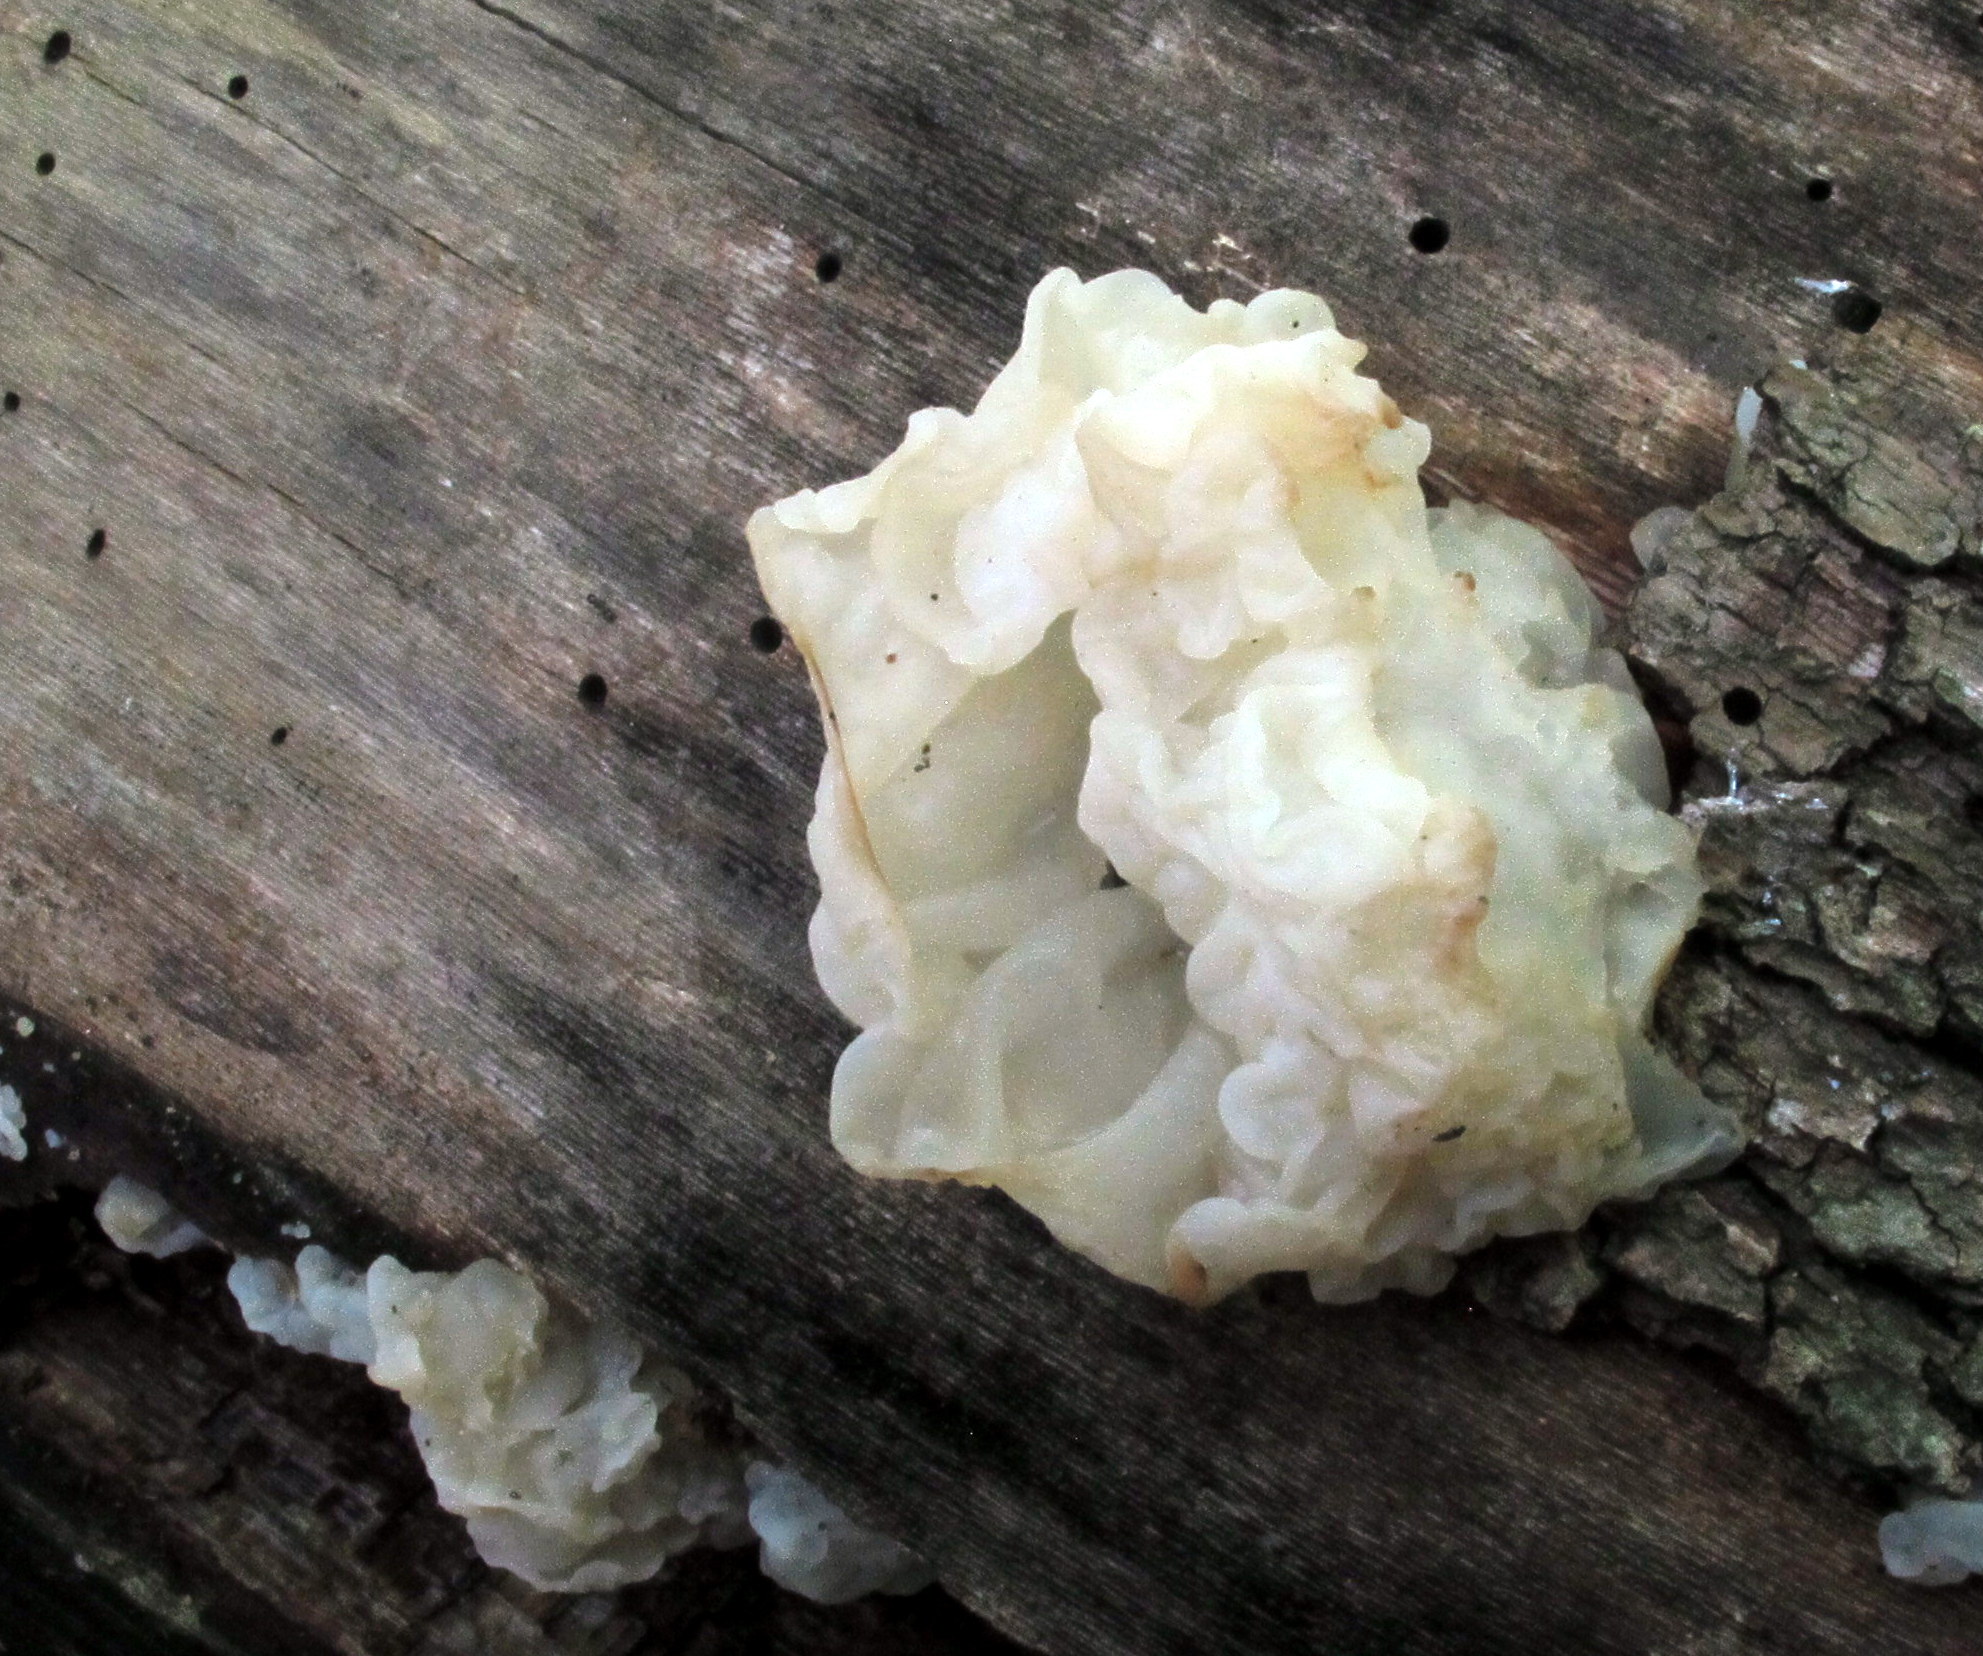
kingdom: Fungi
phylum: Basidiomycota
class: Agaricomycetes
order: Auriculariales
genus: Ductifera
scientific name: Ductifera pululahuana
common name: White jelly fungus
